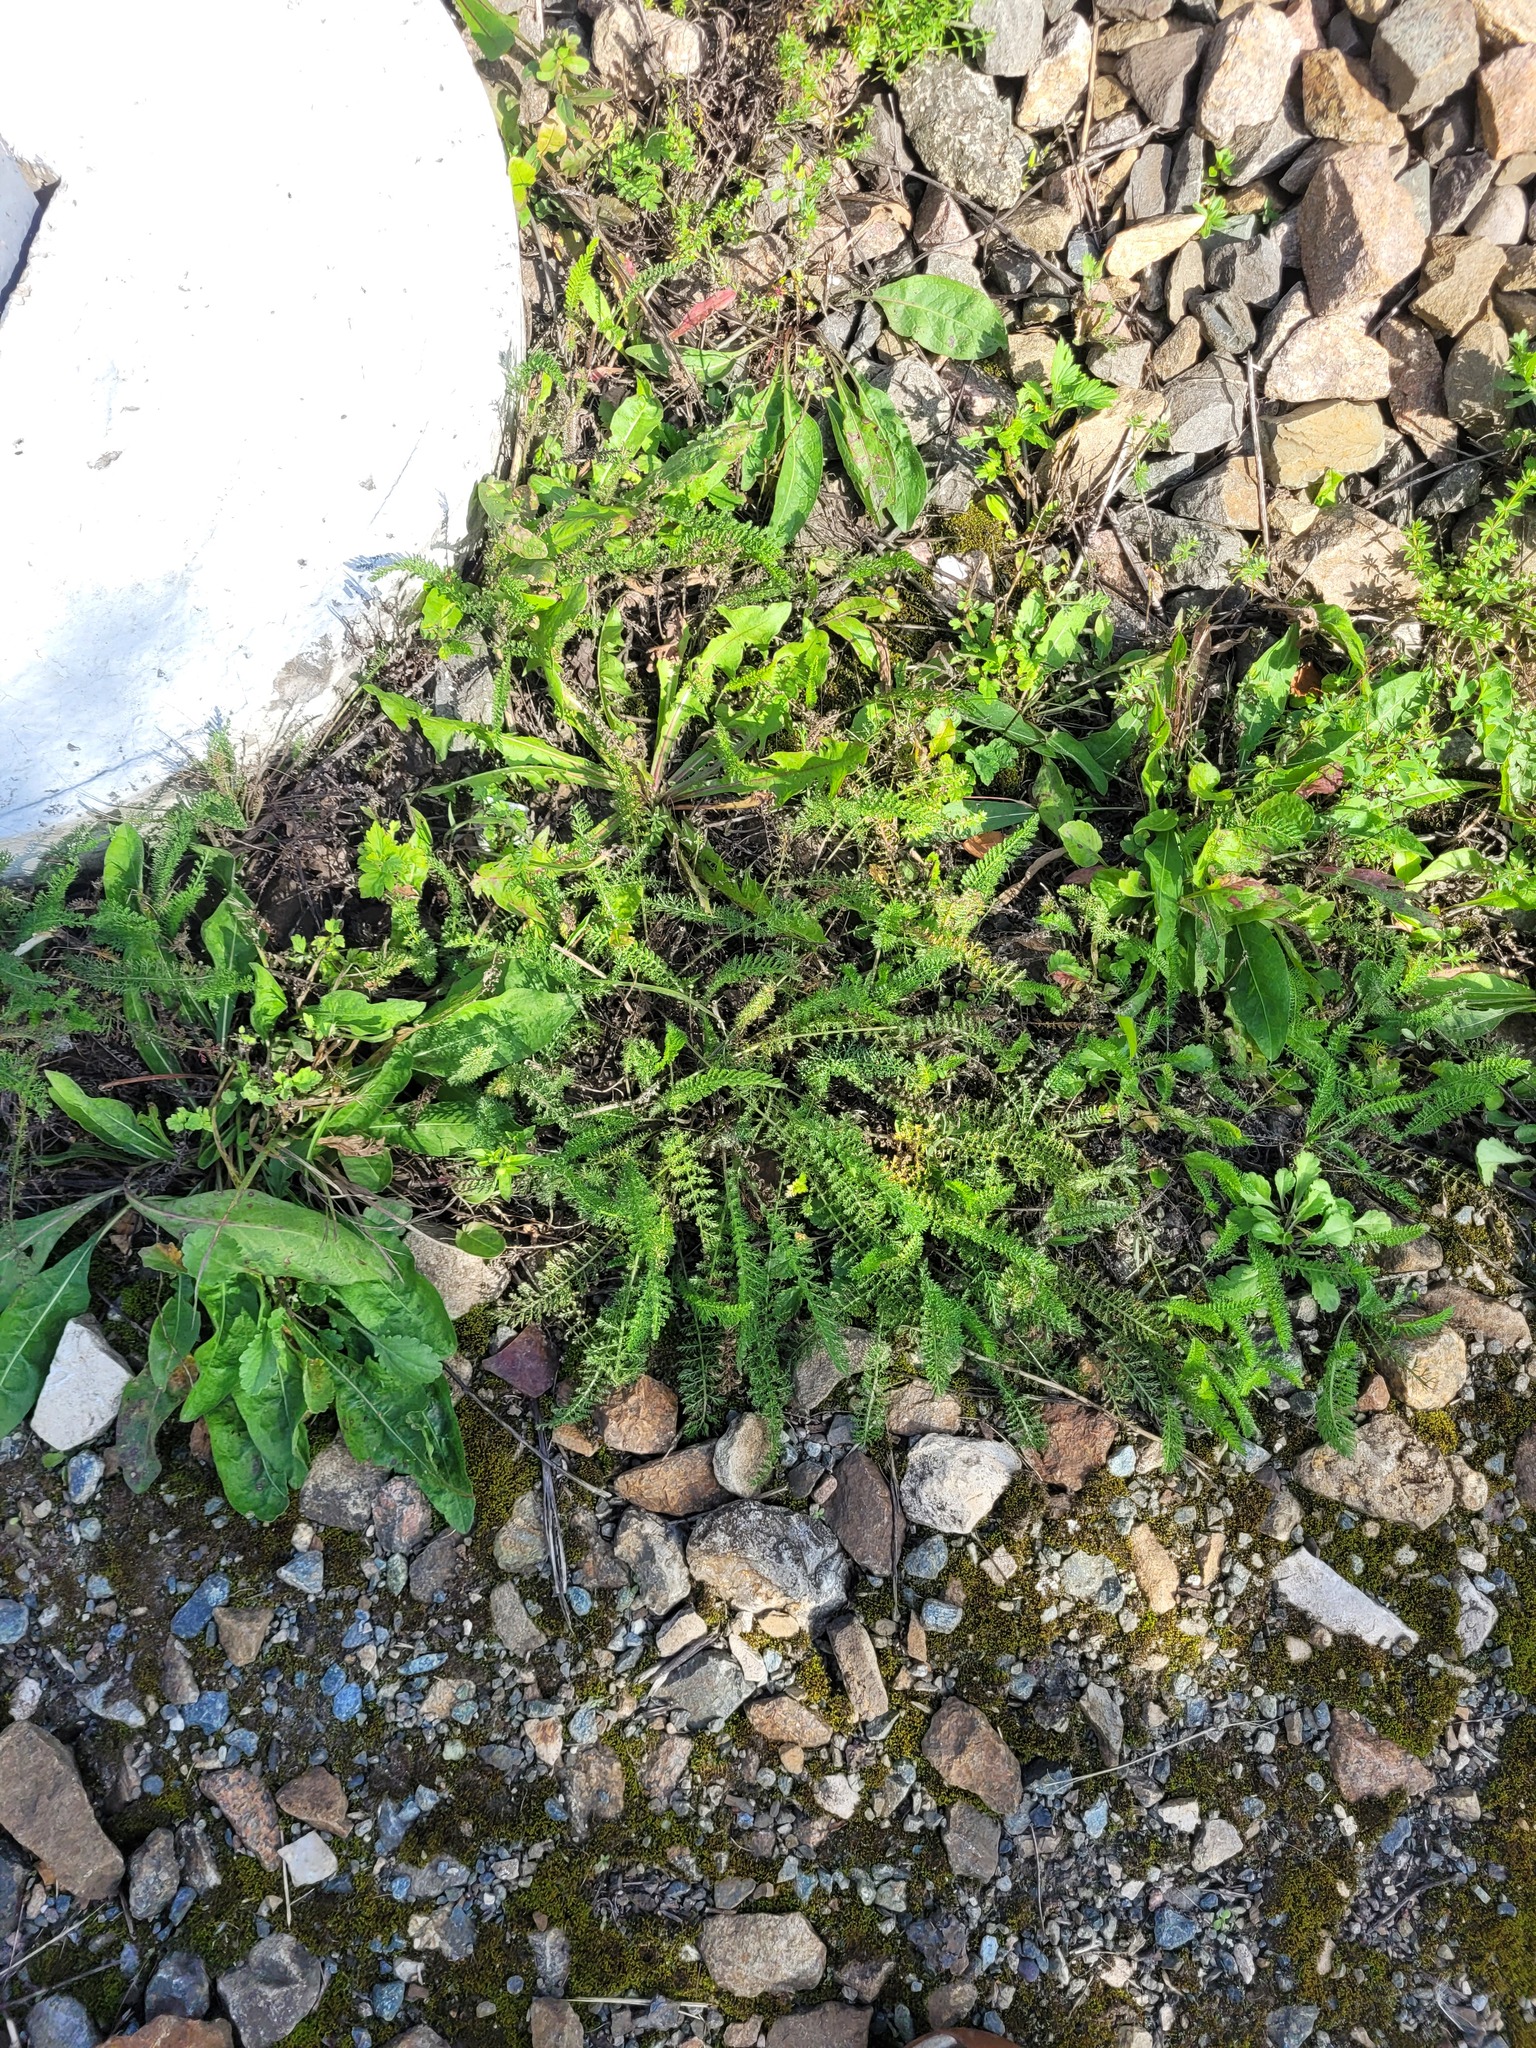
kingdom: Plantae
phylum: Tracheophyta
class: Magnoliopsida
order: Asterales
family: Asteraceae
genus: Achillea
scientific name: Achillea millefolium
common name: Yarrow
